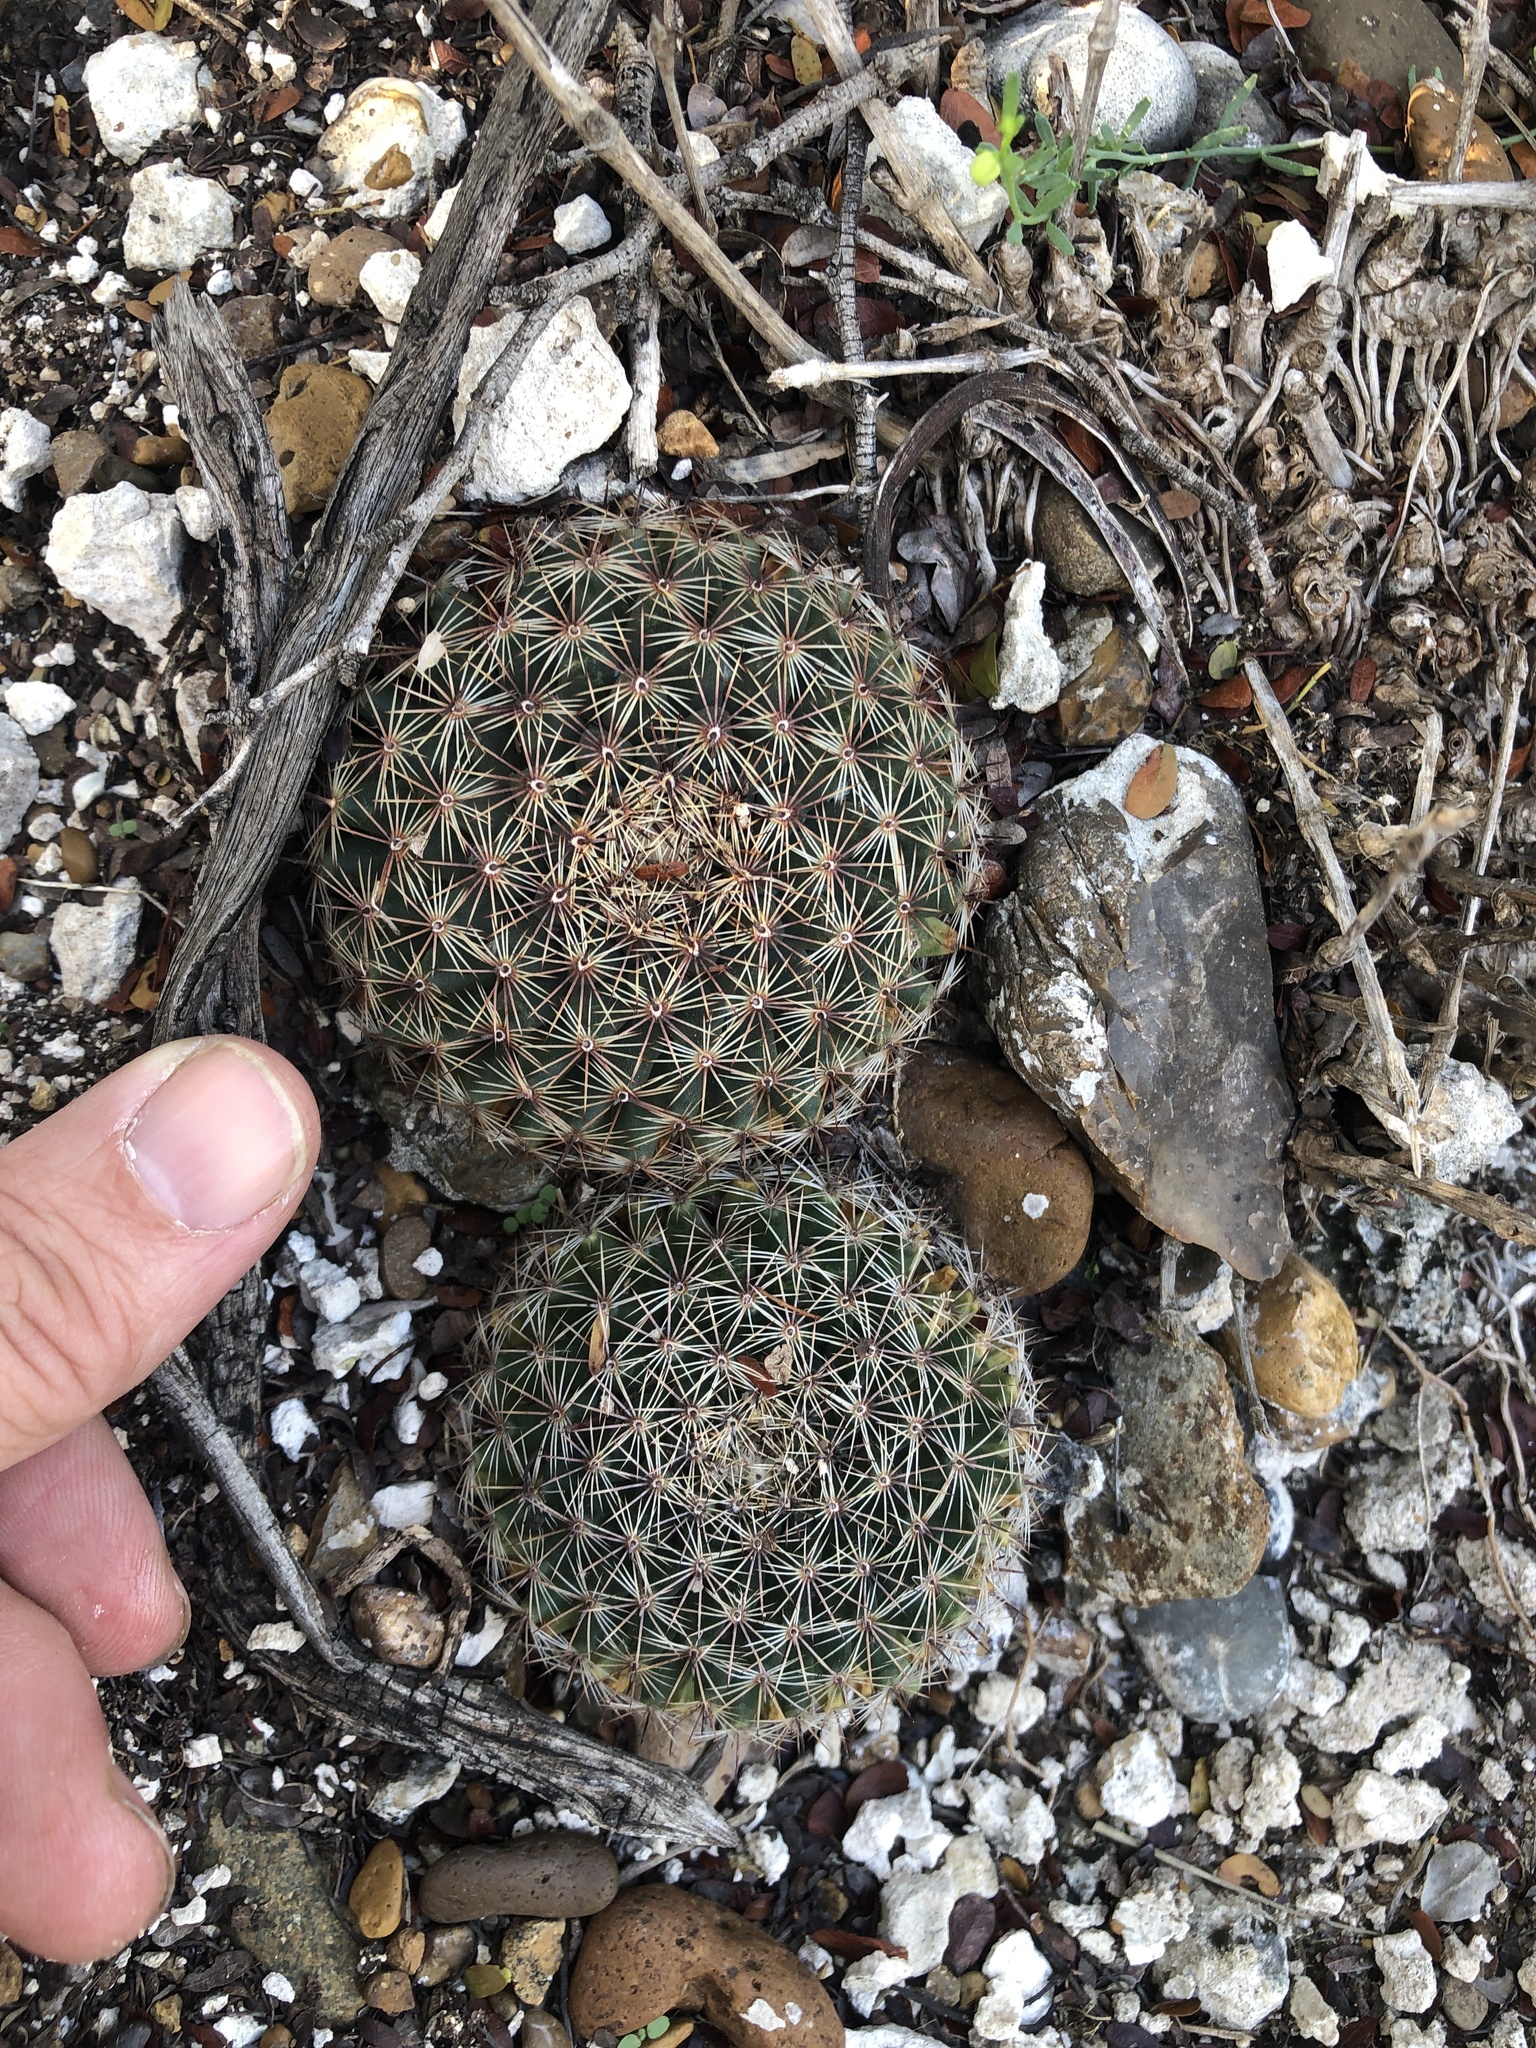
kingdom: Plantae
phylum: Tracheophyta
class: Magnoliopsida
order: Caryophyllales
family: Cactaceae
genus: Mammillaria
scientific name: Mammillaria heyderi
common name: Little nipple cactus
